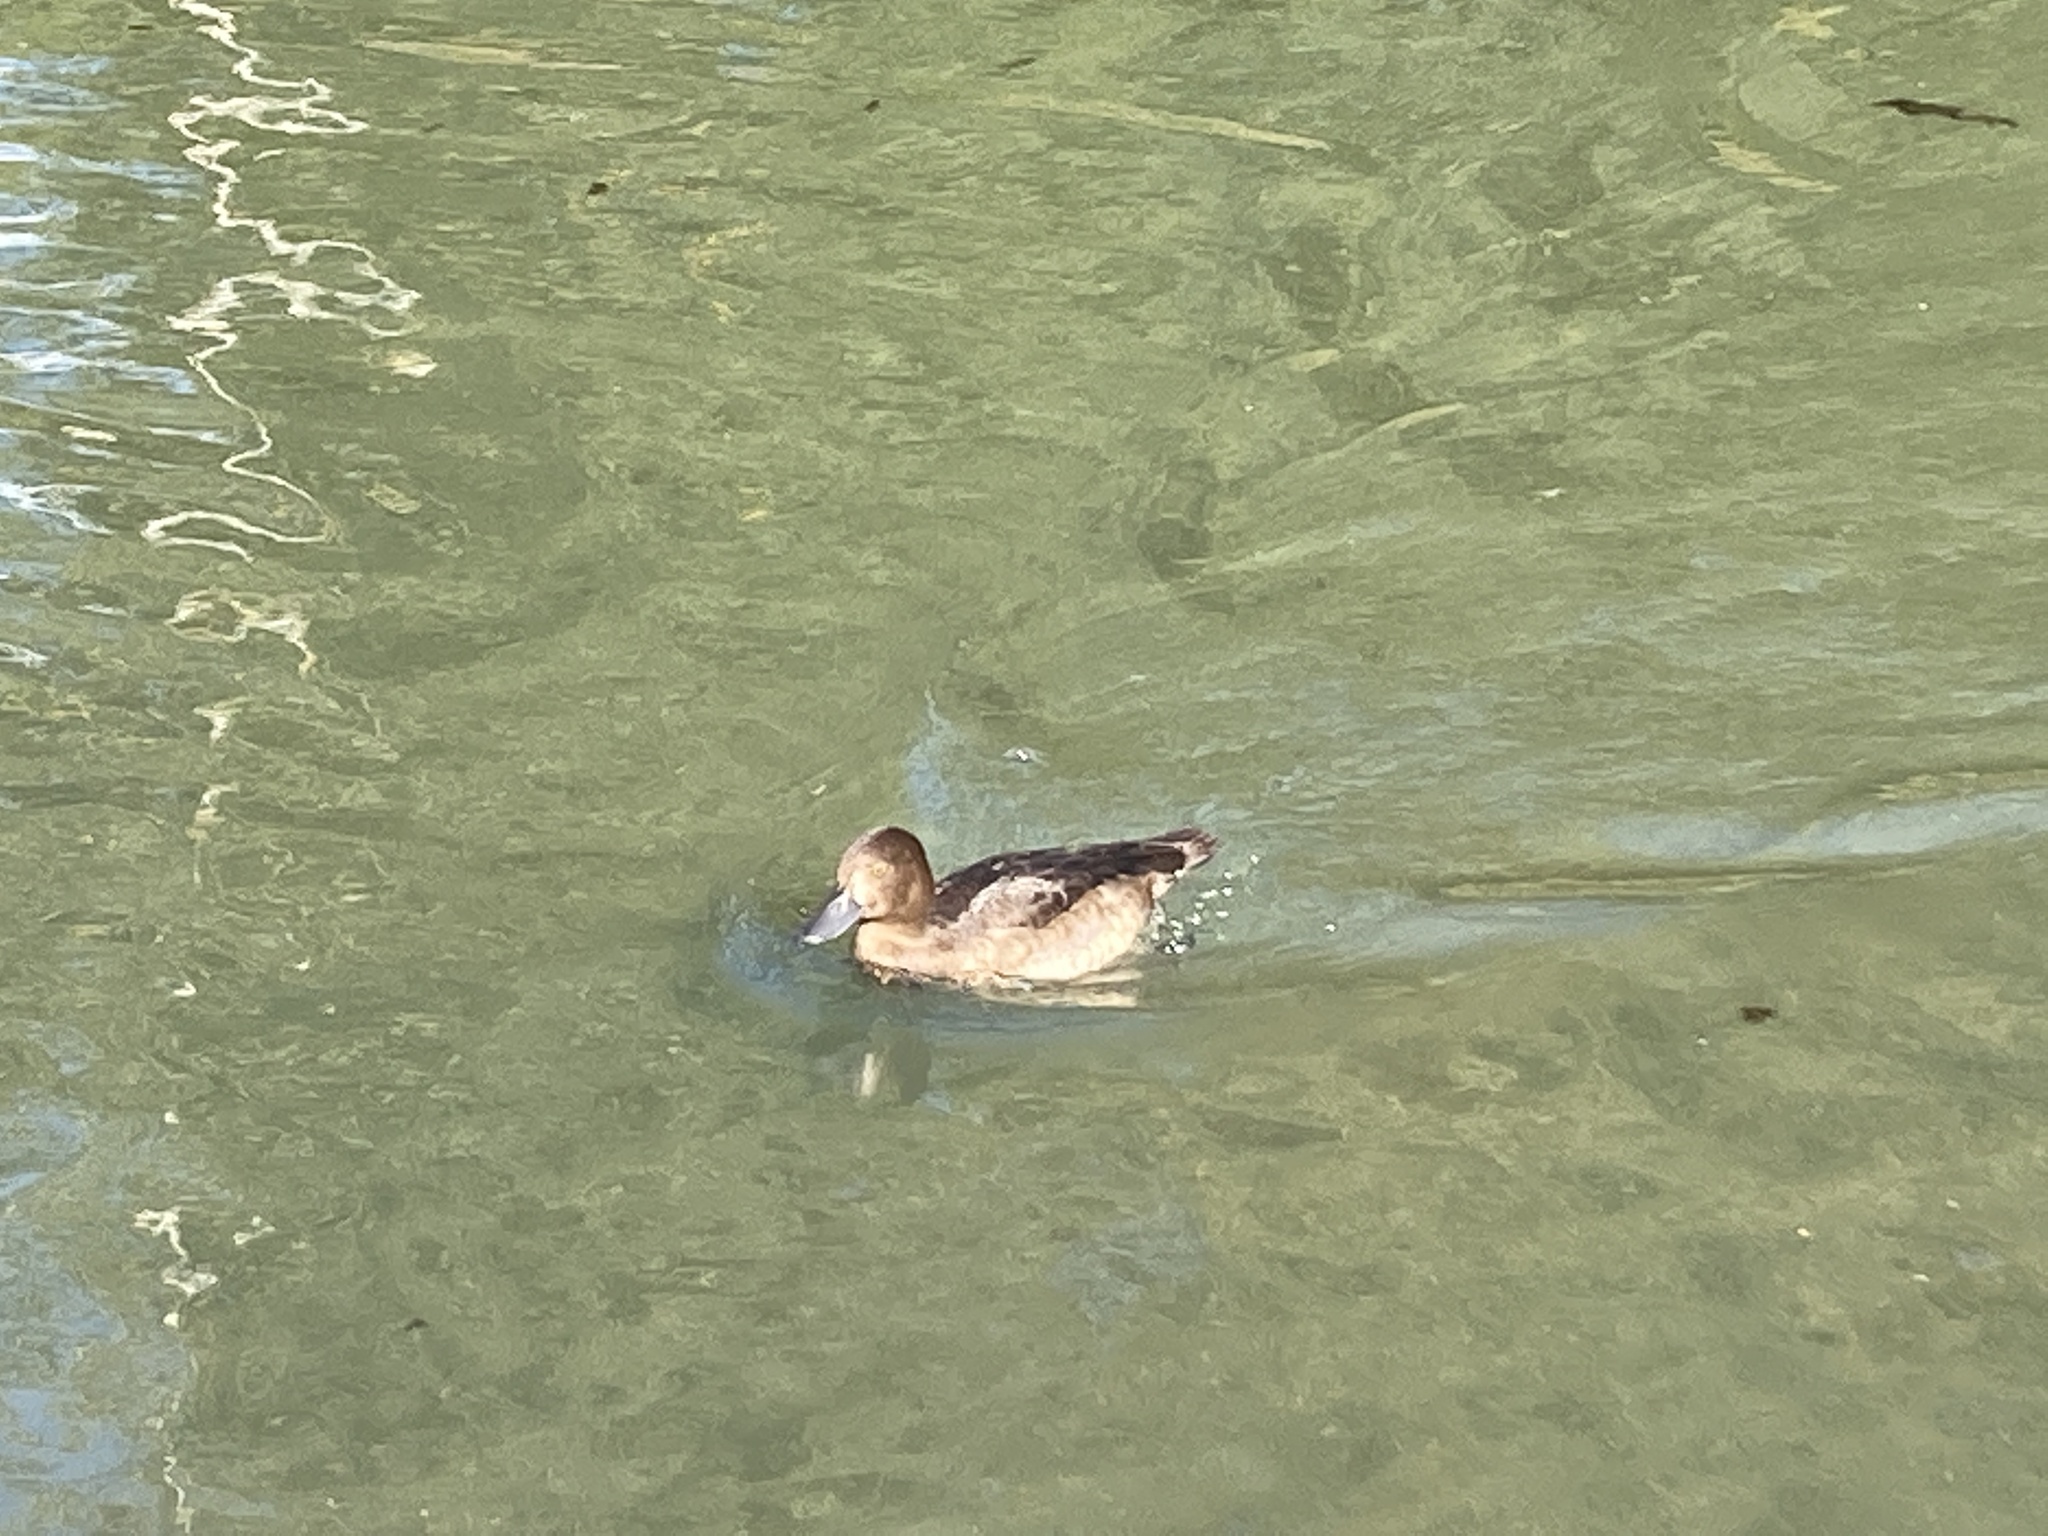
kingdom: Animalia
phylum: Chordata
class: Aves
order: Anseriformes
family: Anatidae
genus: Aythya
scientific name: Aythya fuligula
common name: Tufted duck
